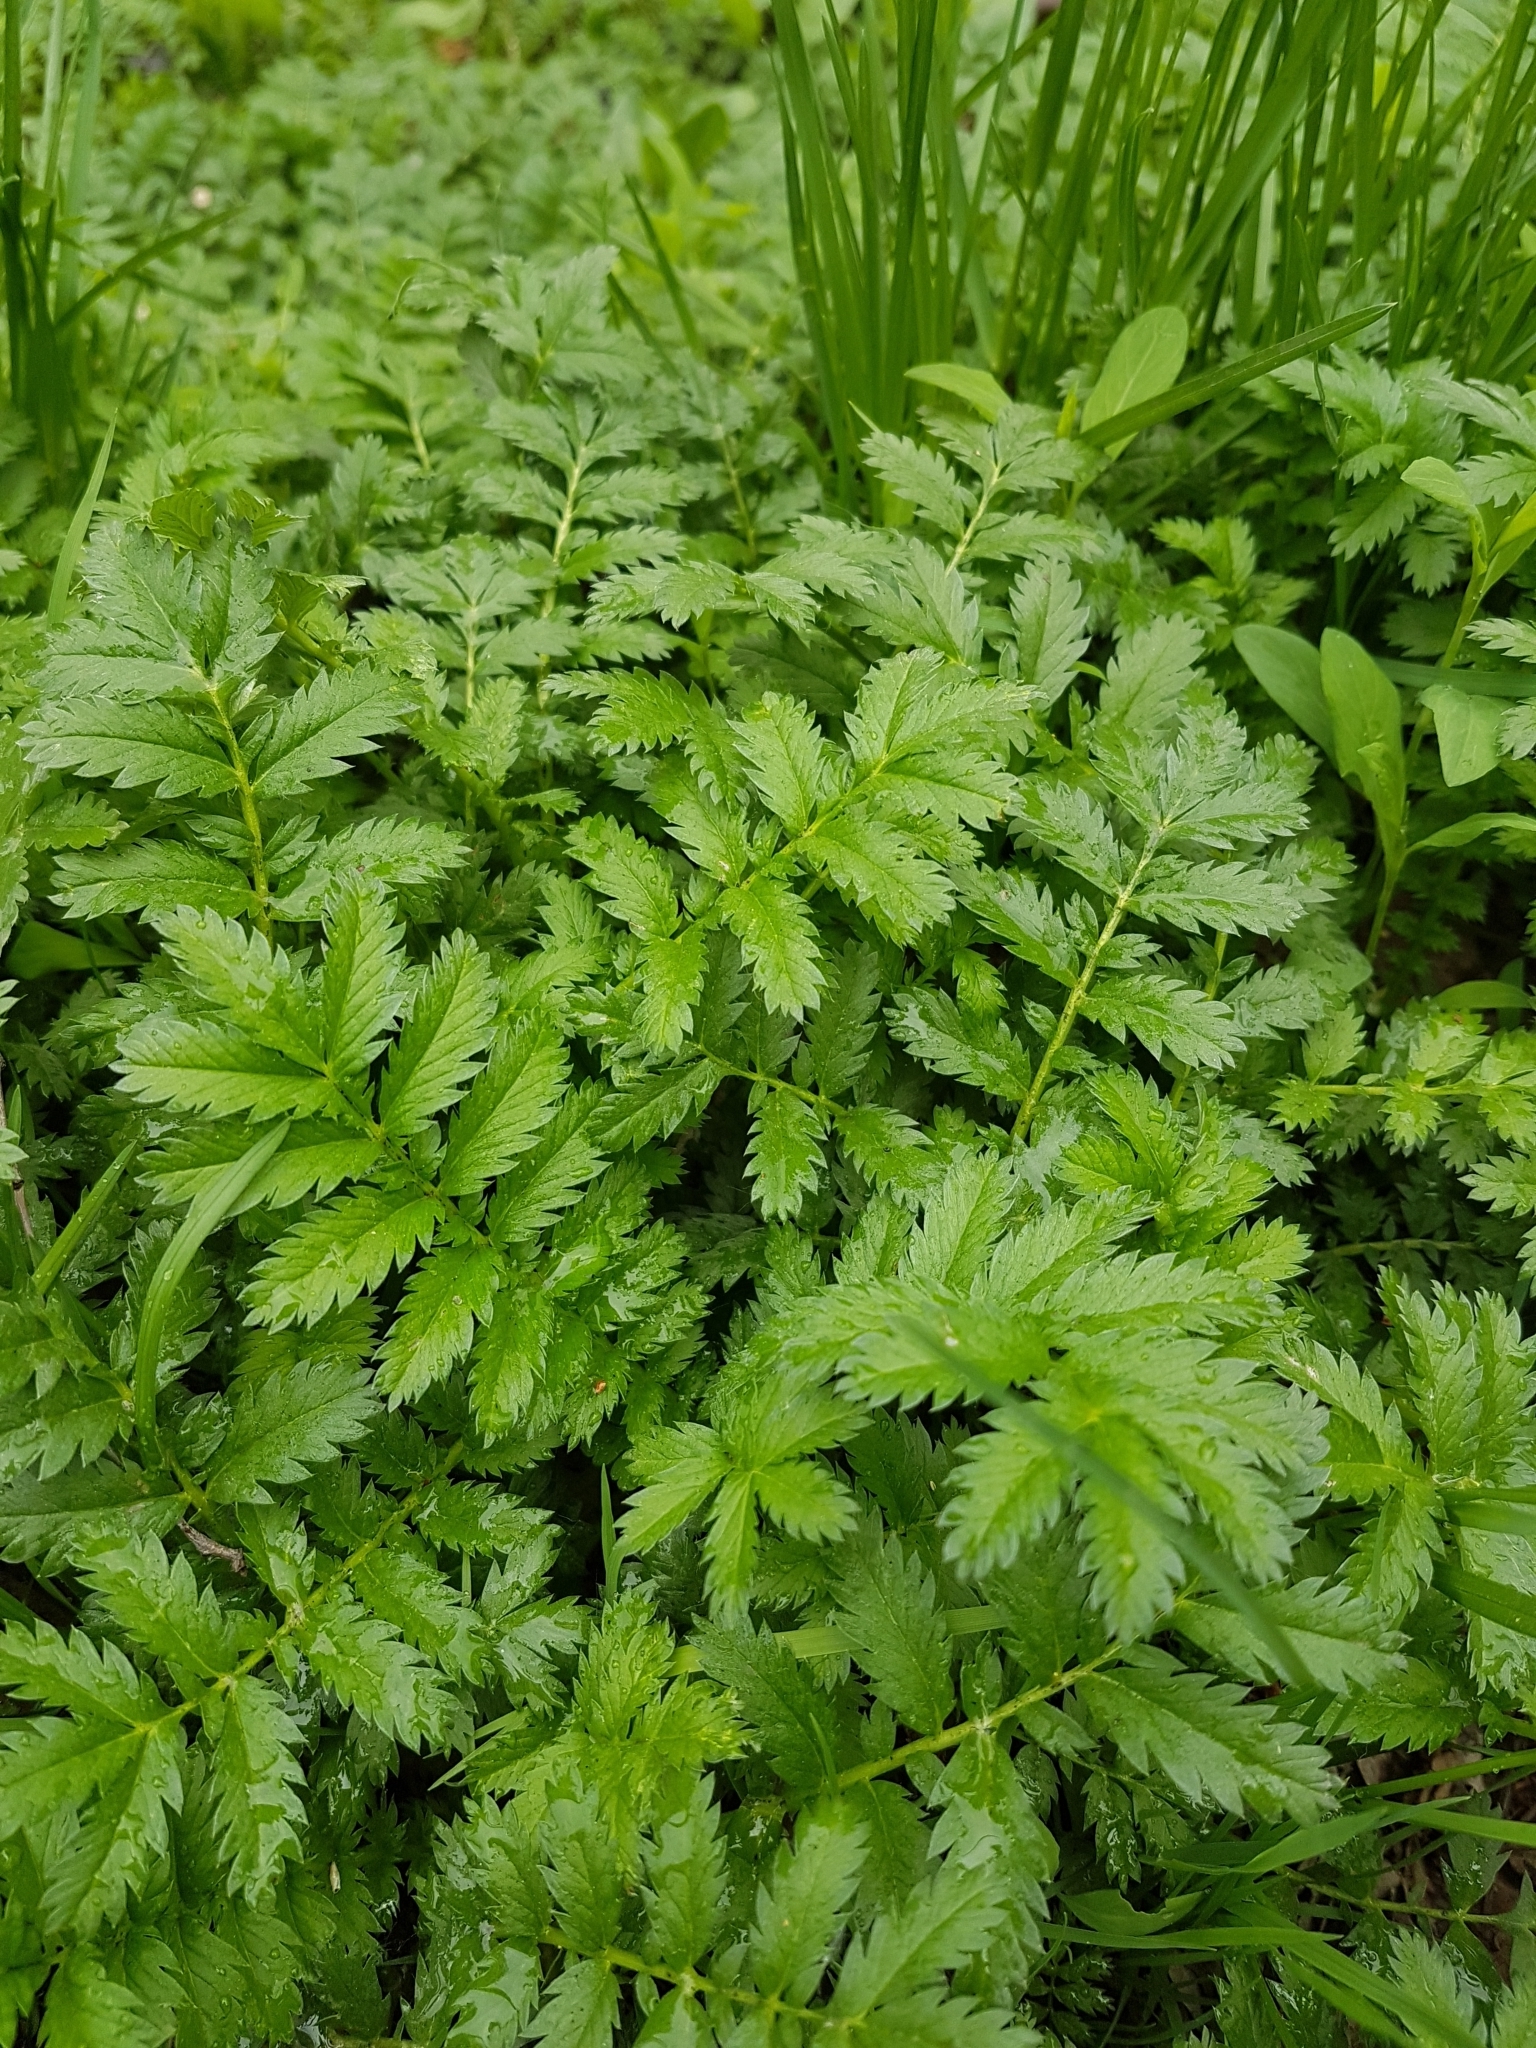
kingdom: Plantae
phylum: Tracheophyta
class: Magnoliopsida
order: Rosales
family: Rosaceae
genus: Argentina
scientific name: Argentina anserina
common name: Common silverweed
